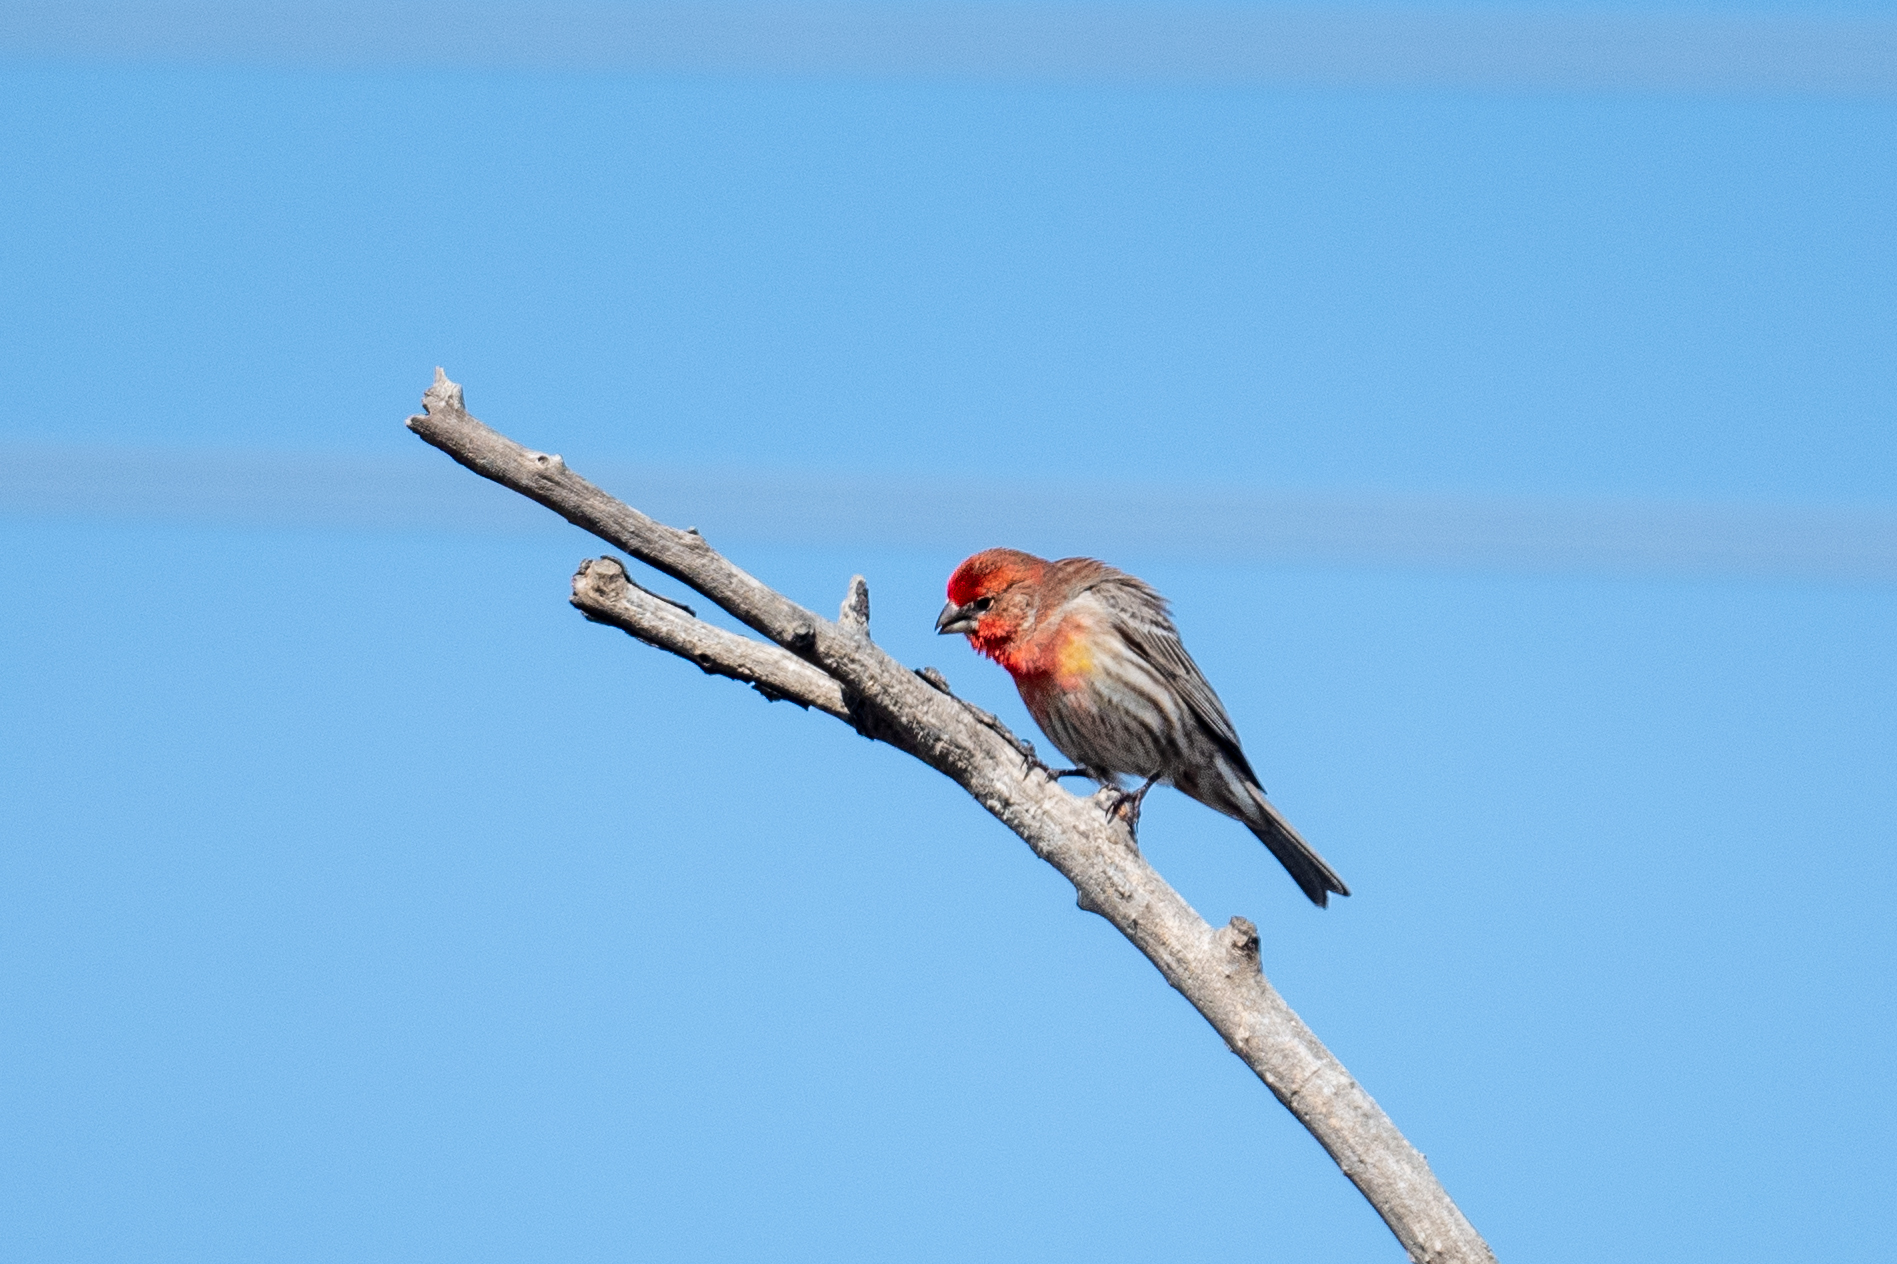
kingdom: Animalia
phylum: Chordata
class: Aves
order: Passeriformes
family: Fringillidae
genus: Haemorhous
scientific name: Haemorhous mexicanus
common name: House finch
